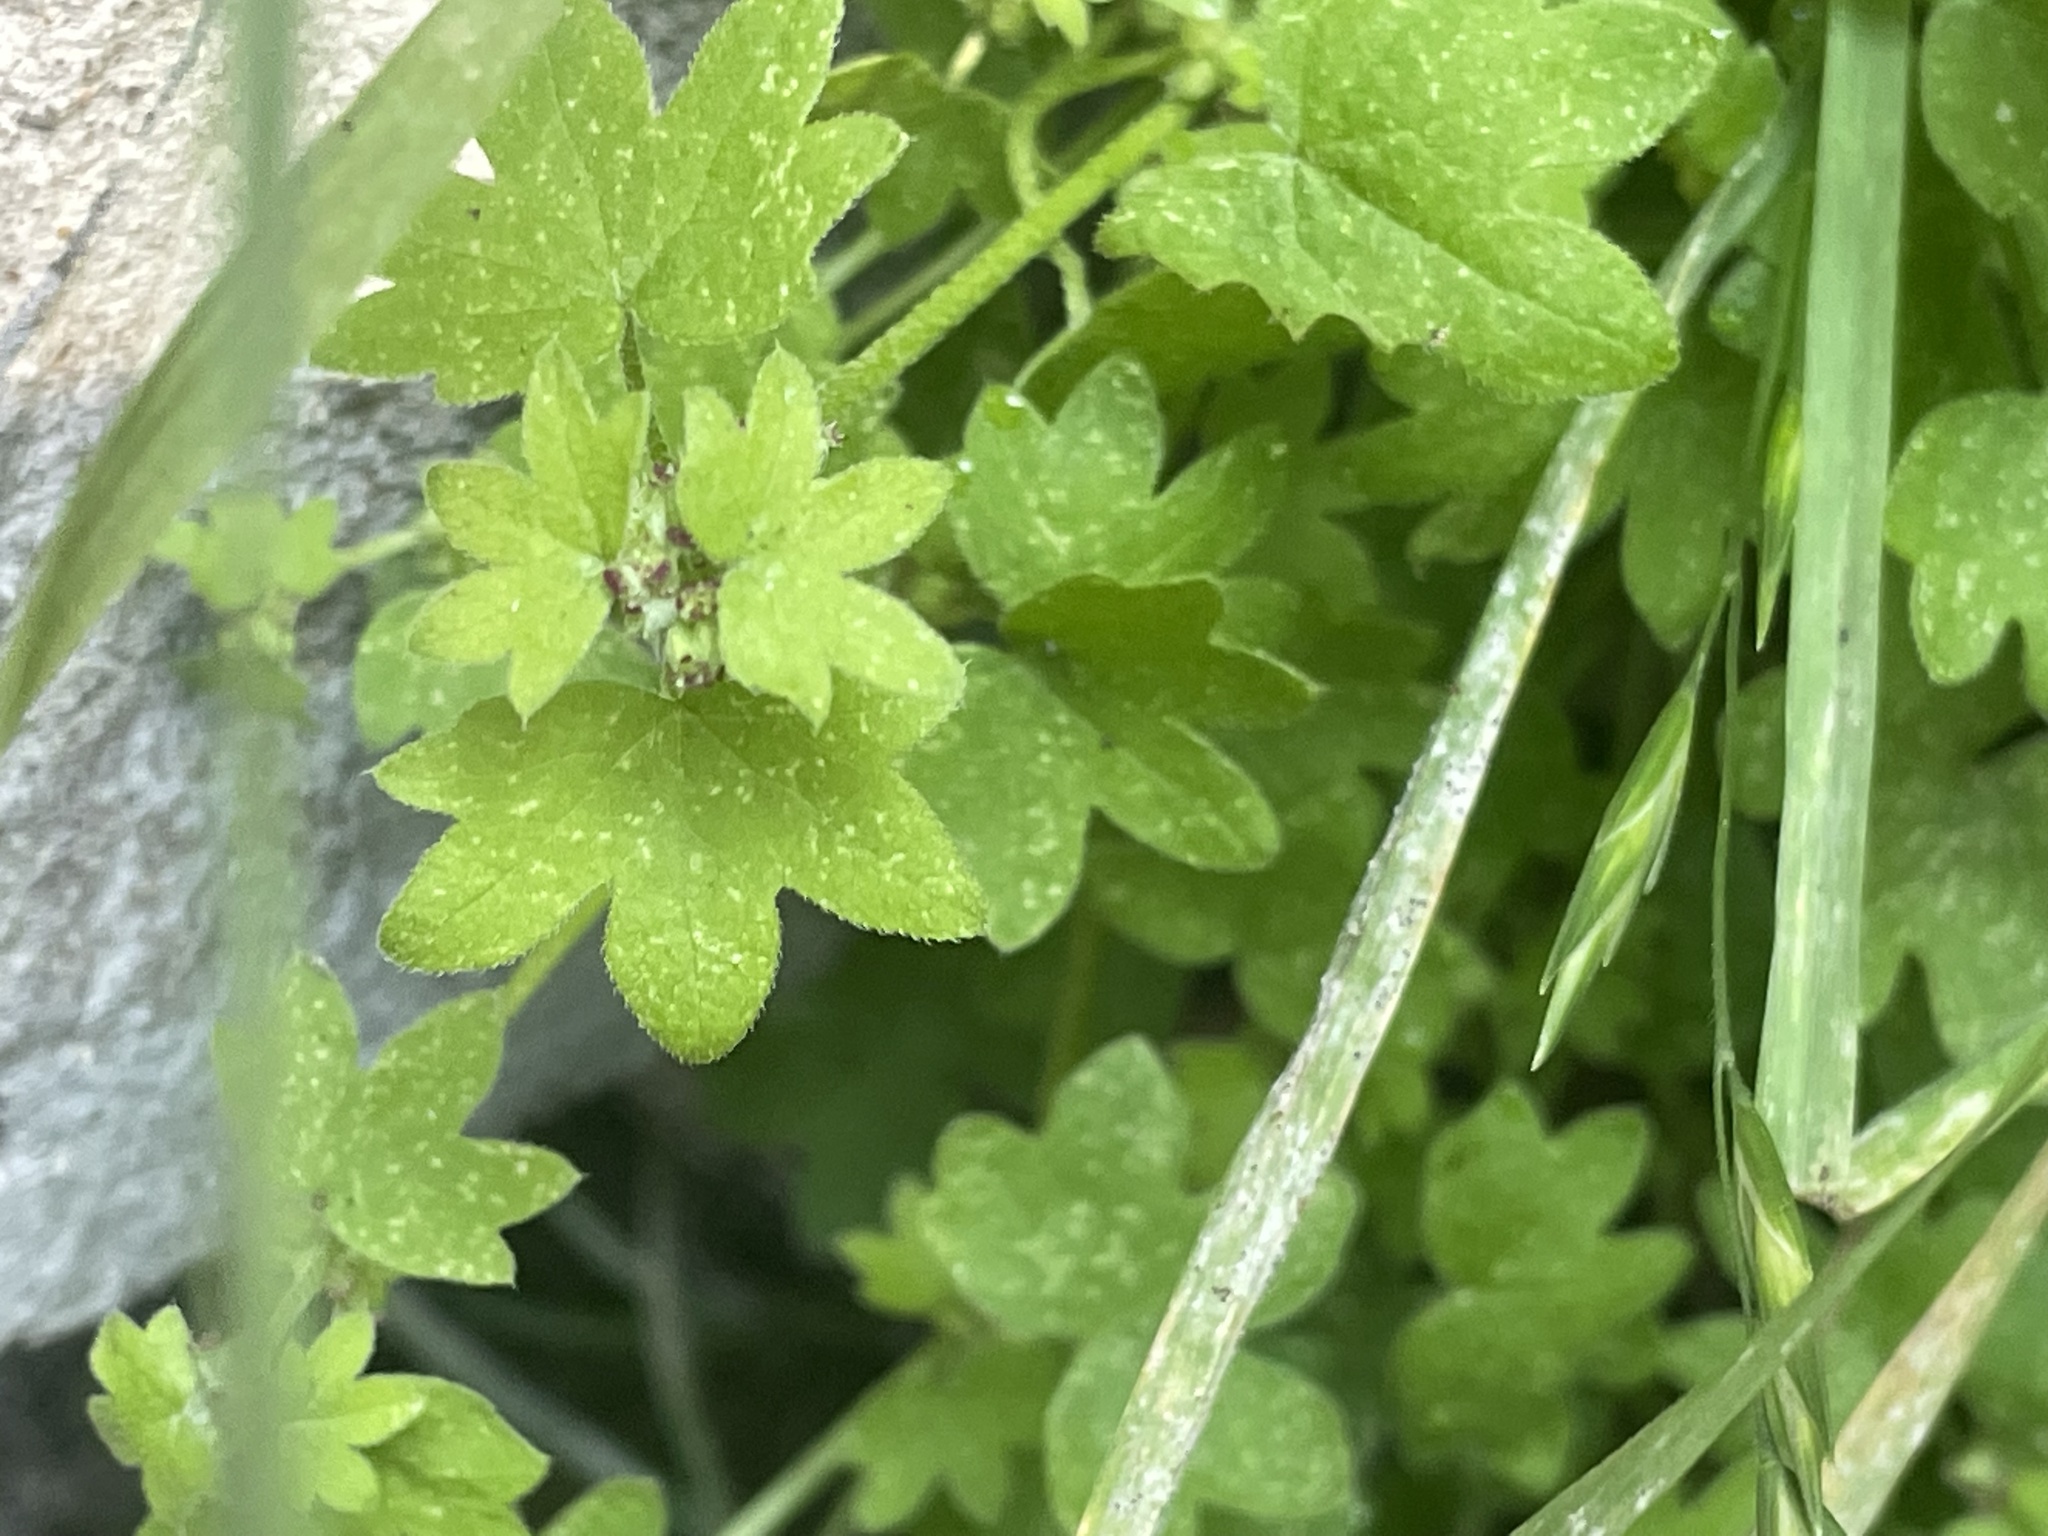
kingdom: Plantae
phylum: Tracheophyta
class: Magnoliopsida
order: Apiales
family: Apiaceae
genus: Bowlesia
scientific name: Bowlesia incana
